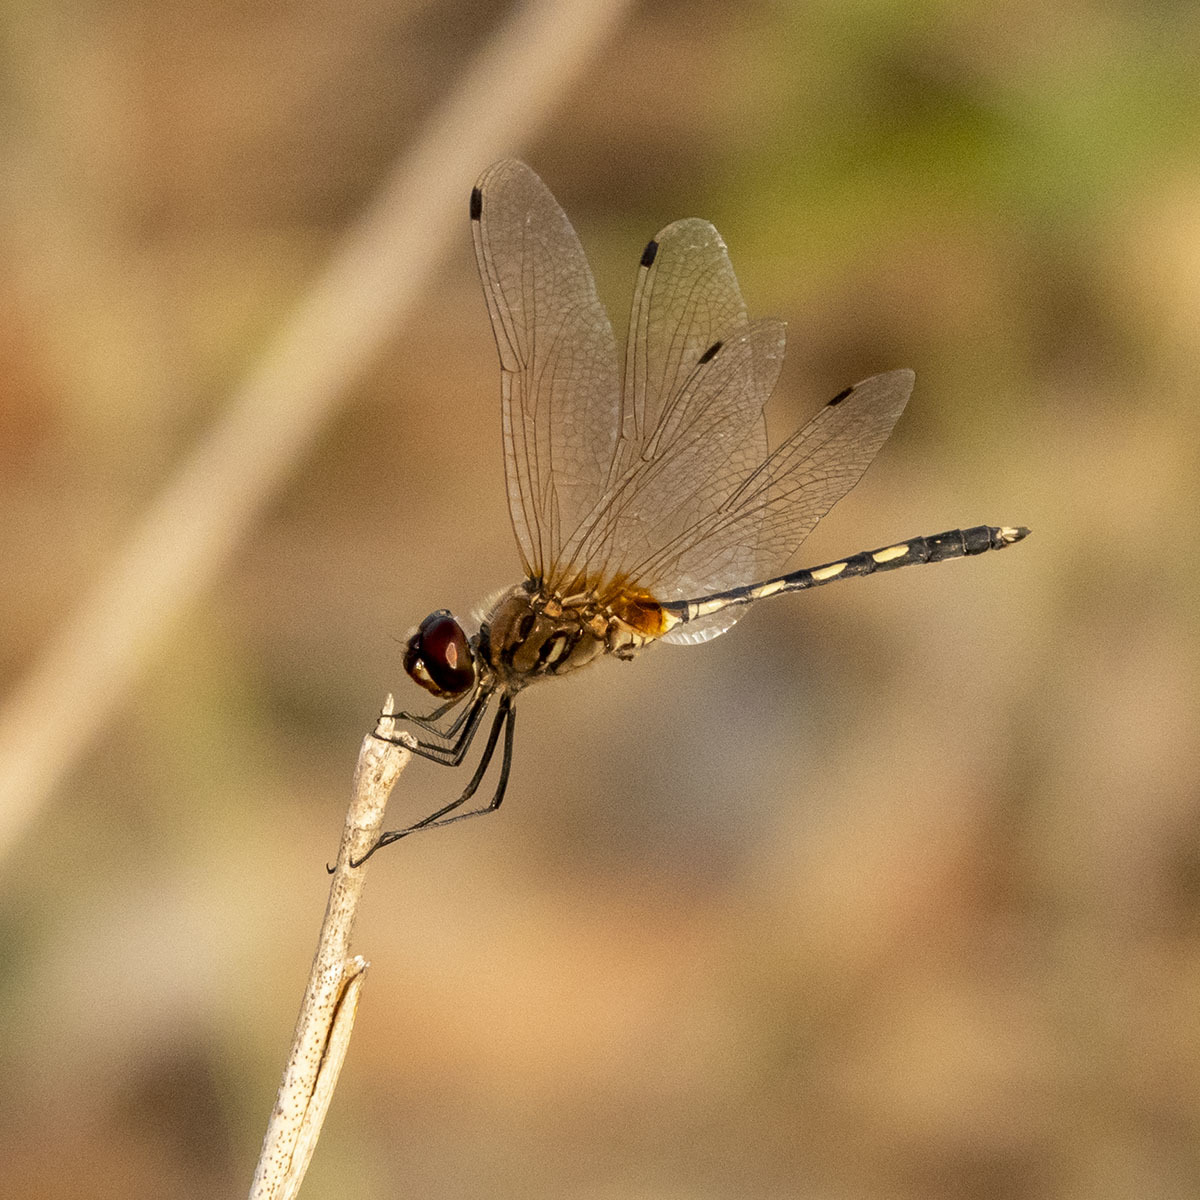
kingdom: Animalia
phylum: Arthropoda
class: Insecta
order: Odonata
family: Libellulidae
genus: Trithemis
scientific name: Trithemis pallidinervis
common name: Dancing dropwing
